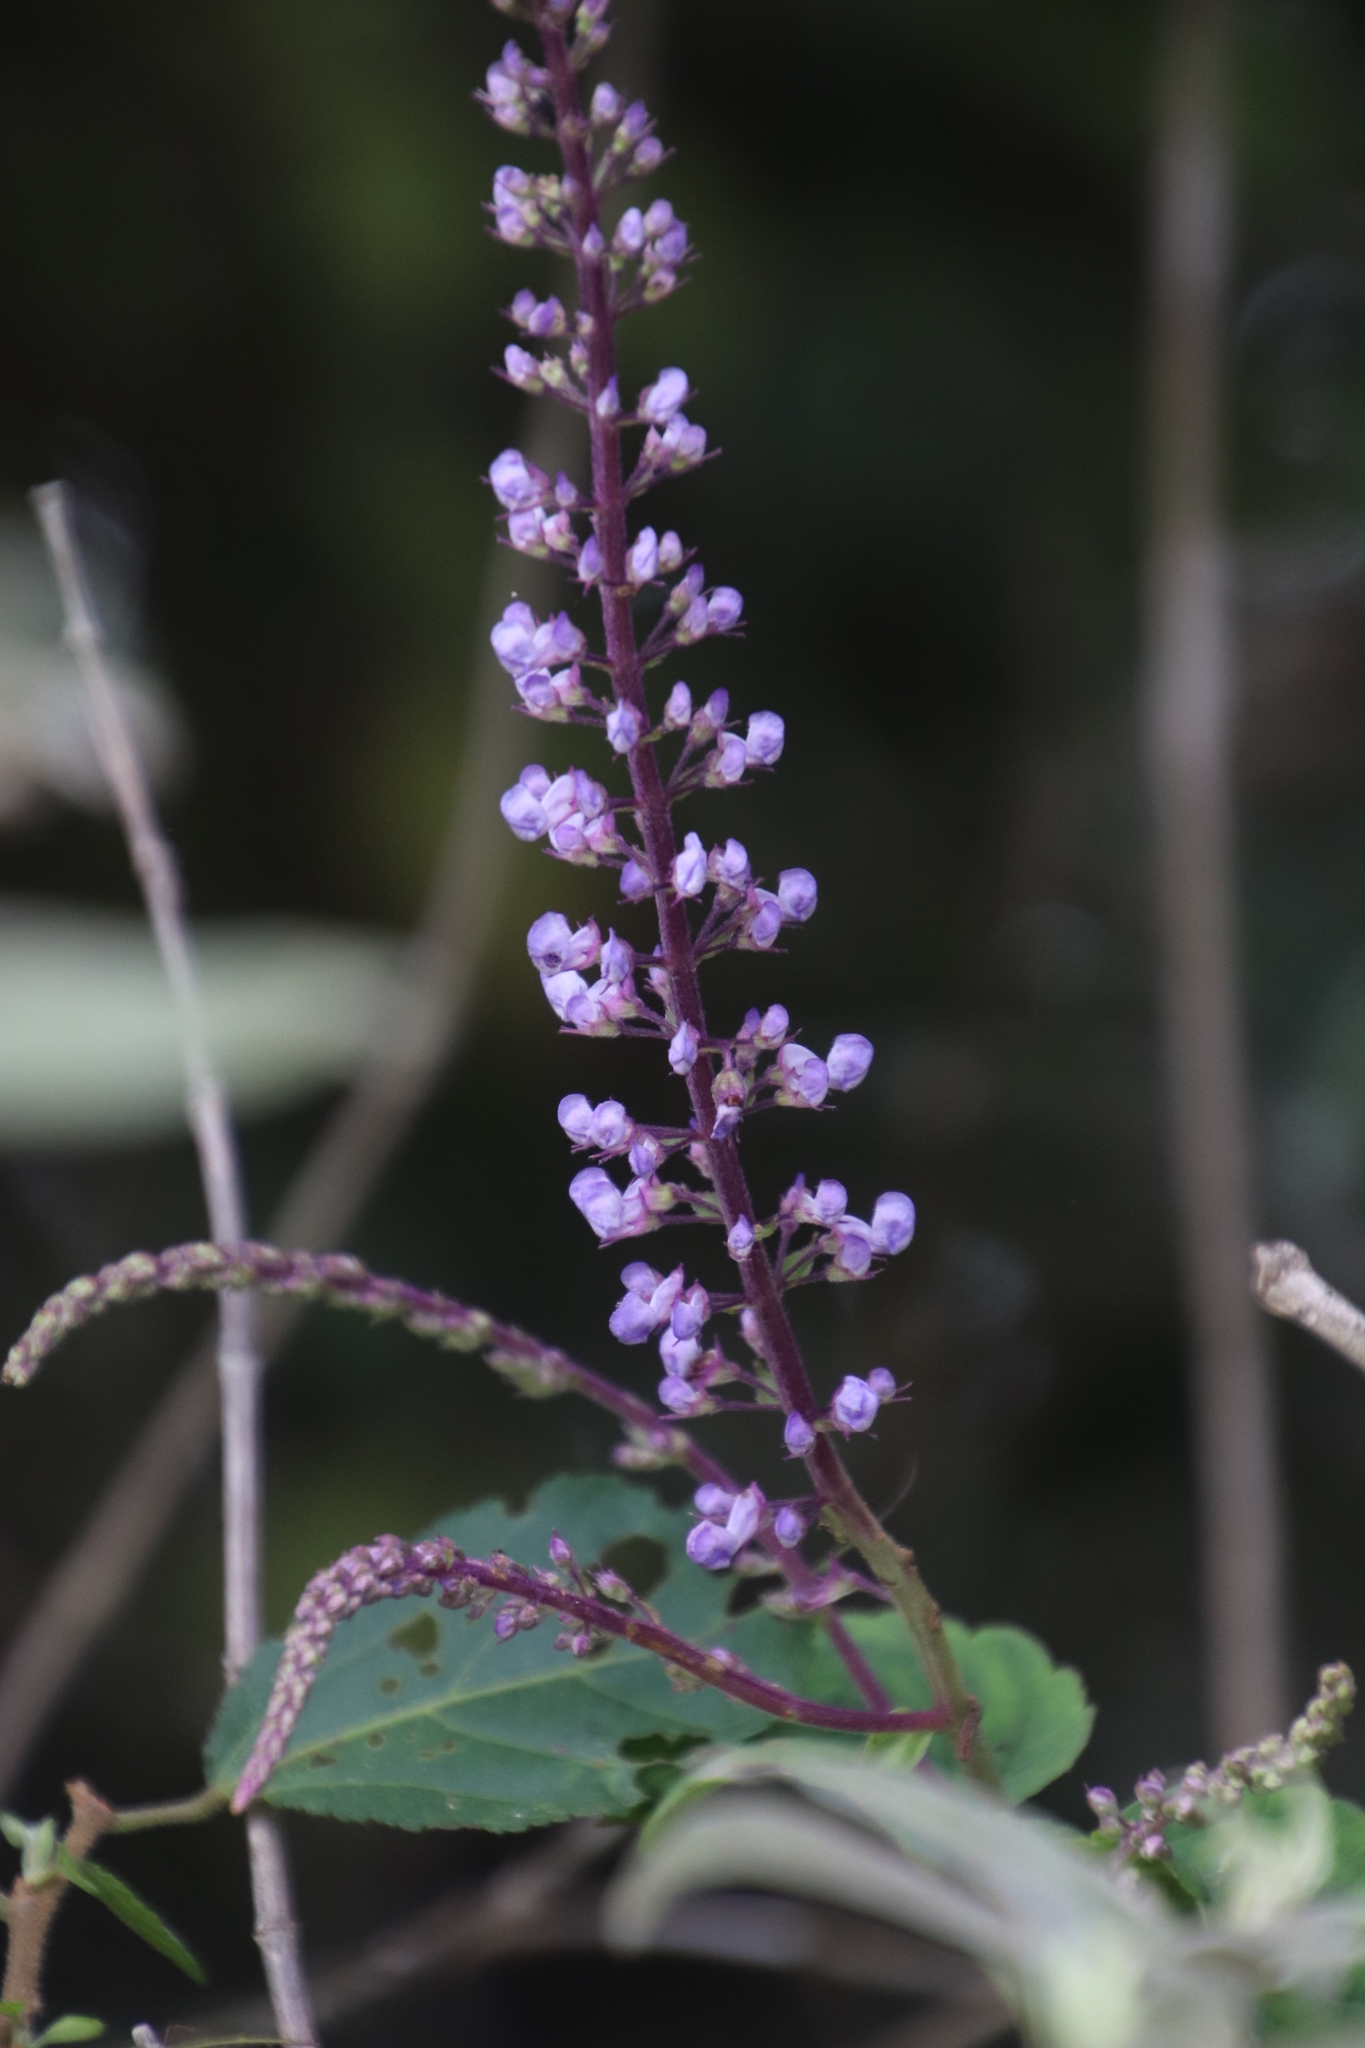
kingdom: Plantae
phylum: Tracheophyta
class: Magnoliopsida
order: Lamiales
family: Lamiaceae
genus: Plectranthus
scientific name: Plectranthus fruticosus
